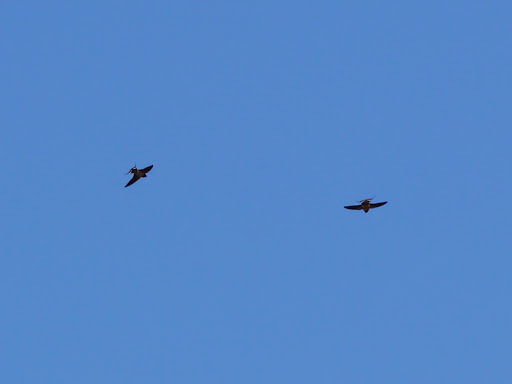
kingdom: Animalia
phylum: Chordata
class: Aves
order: Passeriformes
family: Hirundinidae
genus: Hirundo
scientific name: Hirundo rustica
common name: Barn swallow
